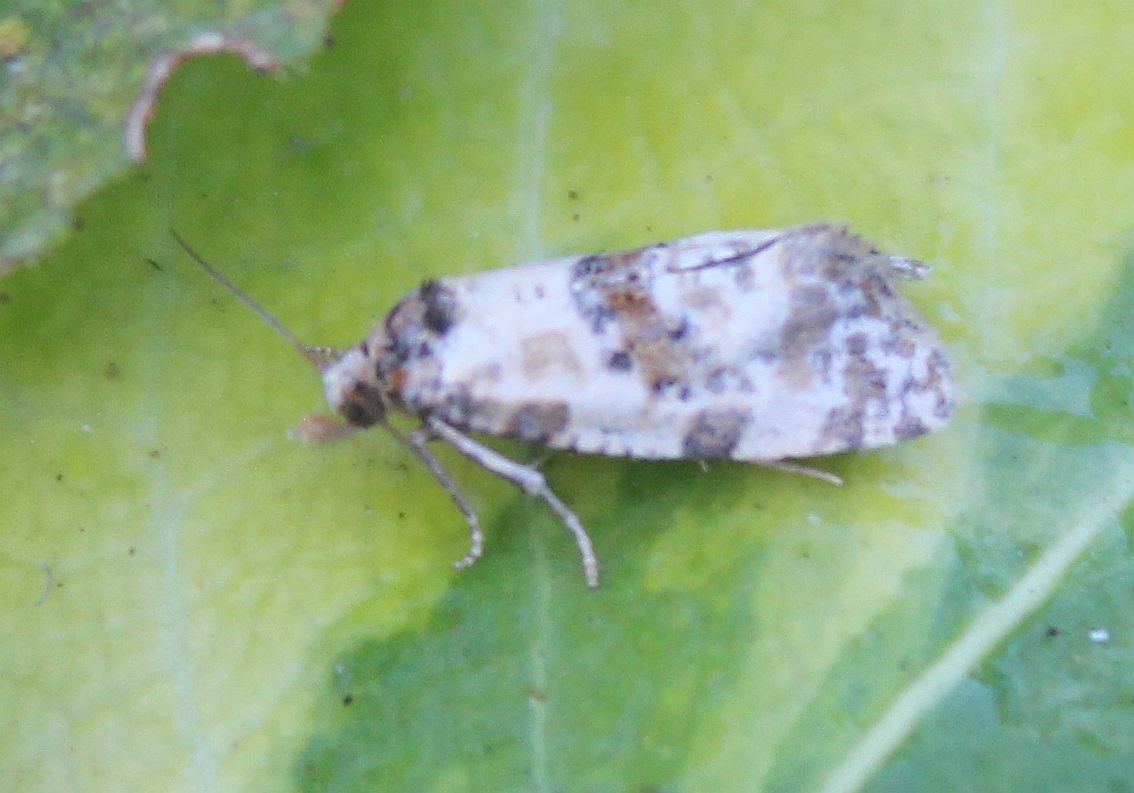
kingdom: Animalia
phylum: Arthropoda
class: Insecta
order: Lepidoptera
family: Tortricidae
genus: Cochylis
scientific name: Cochylis molliculana
